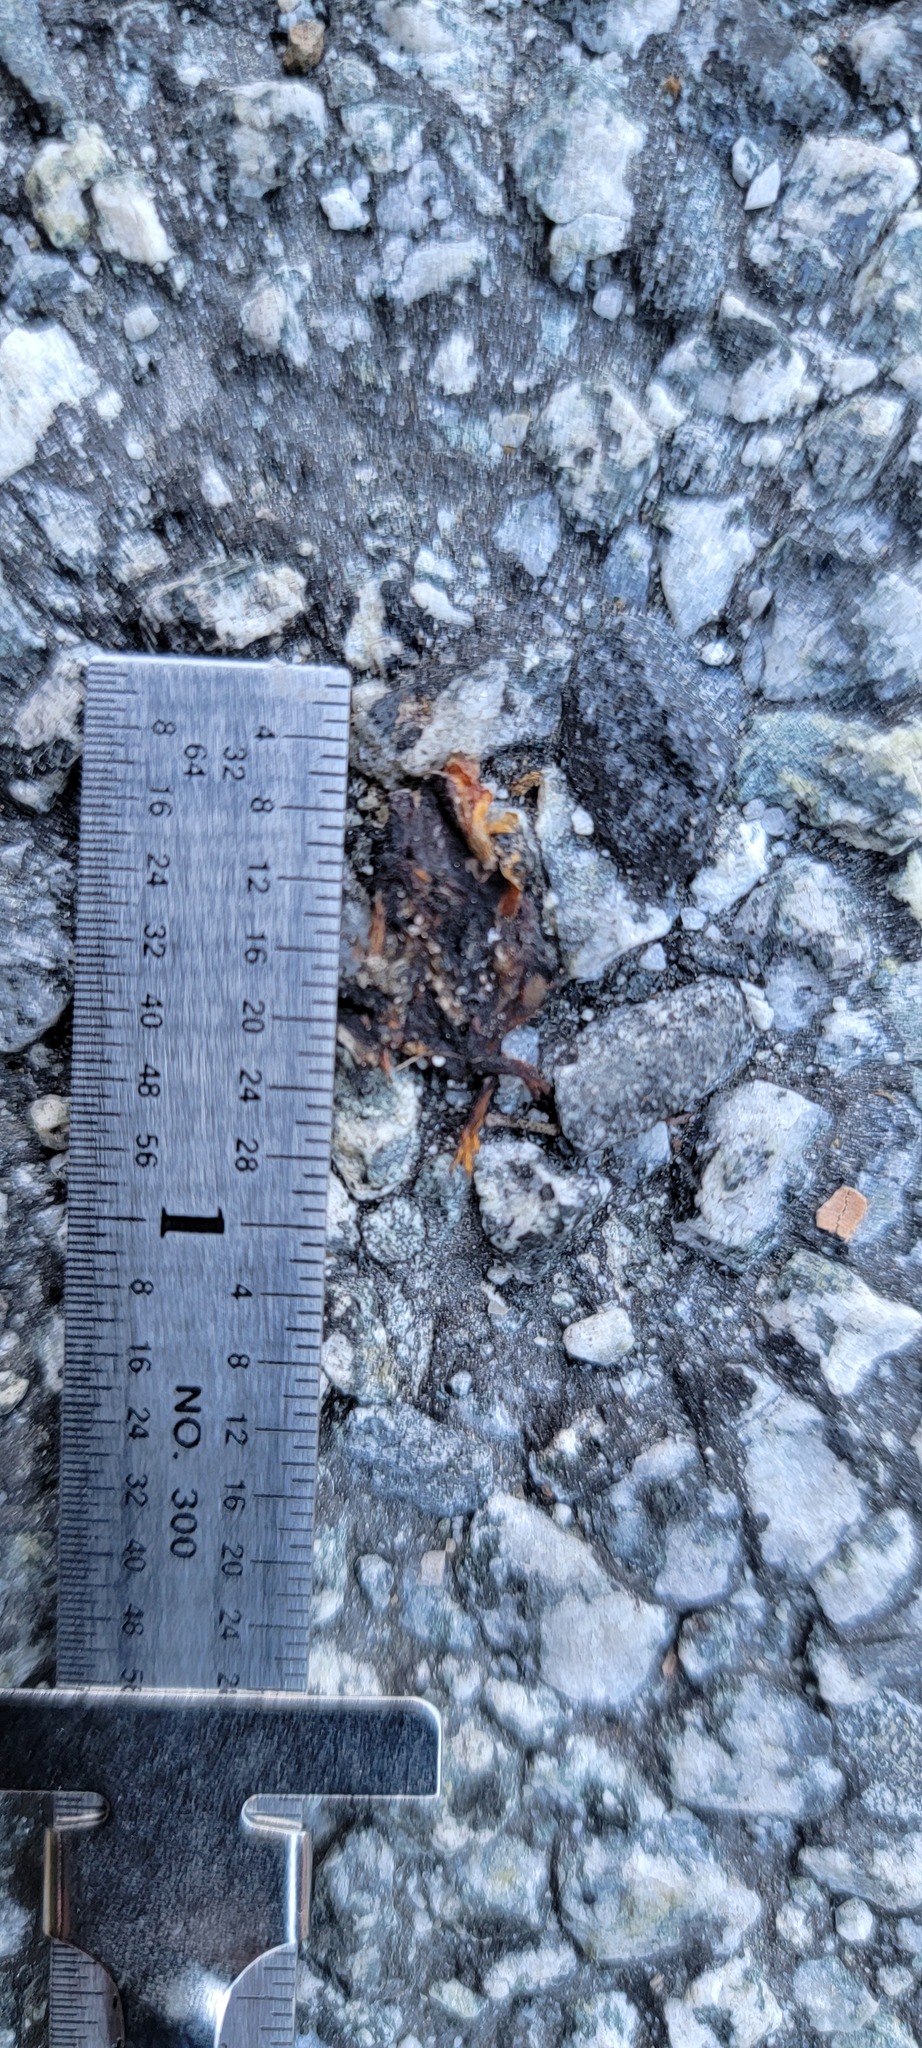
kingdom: Animalia
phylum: Chordata
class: Amphibia
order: Caudata
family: Salamandridae
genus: Taricha
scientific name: Taricha
